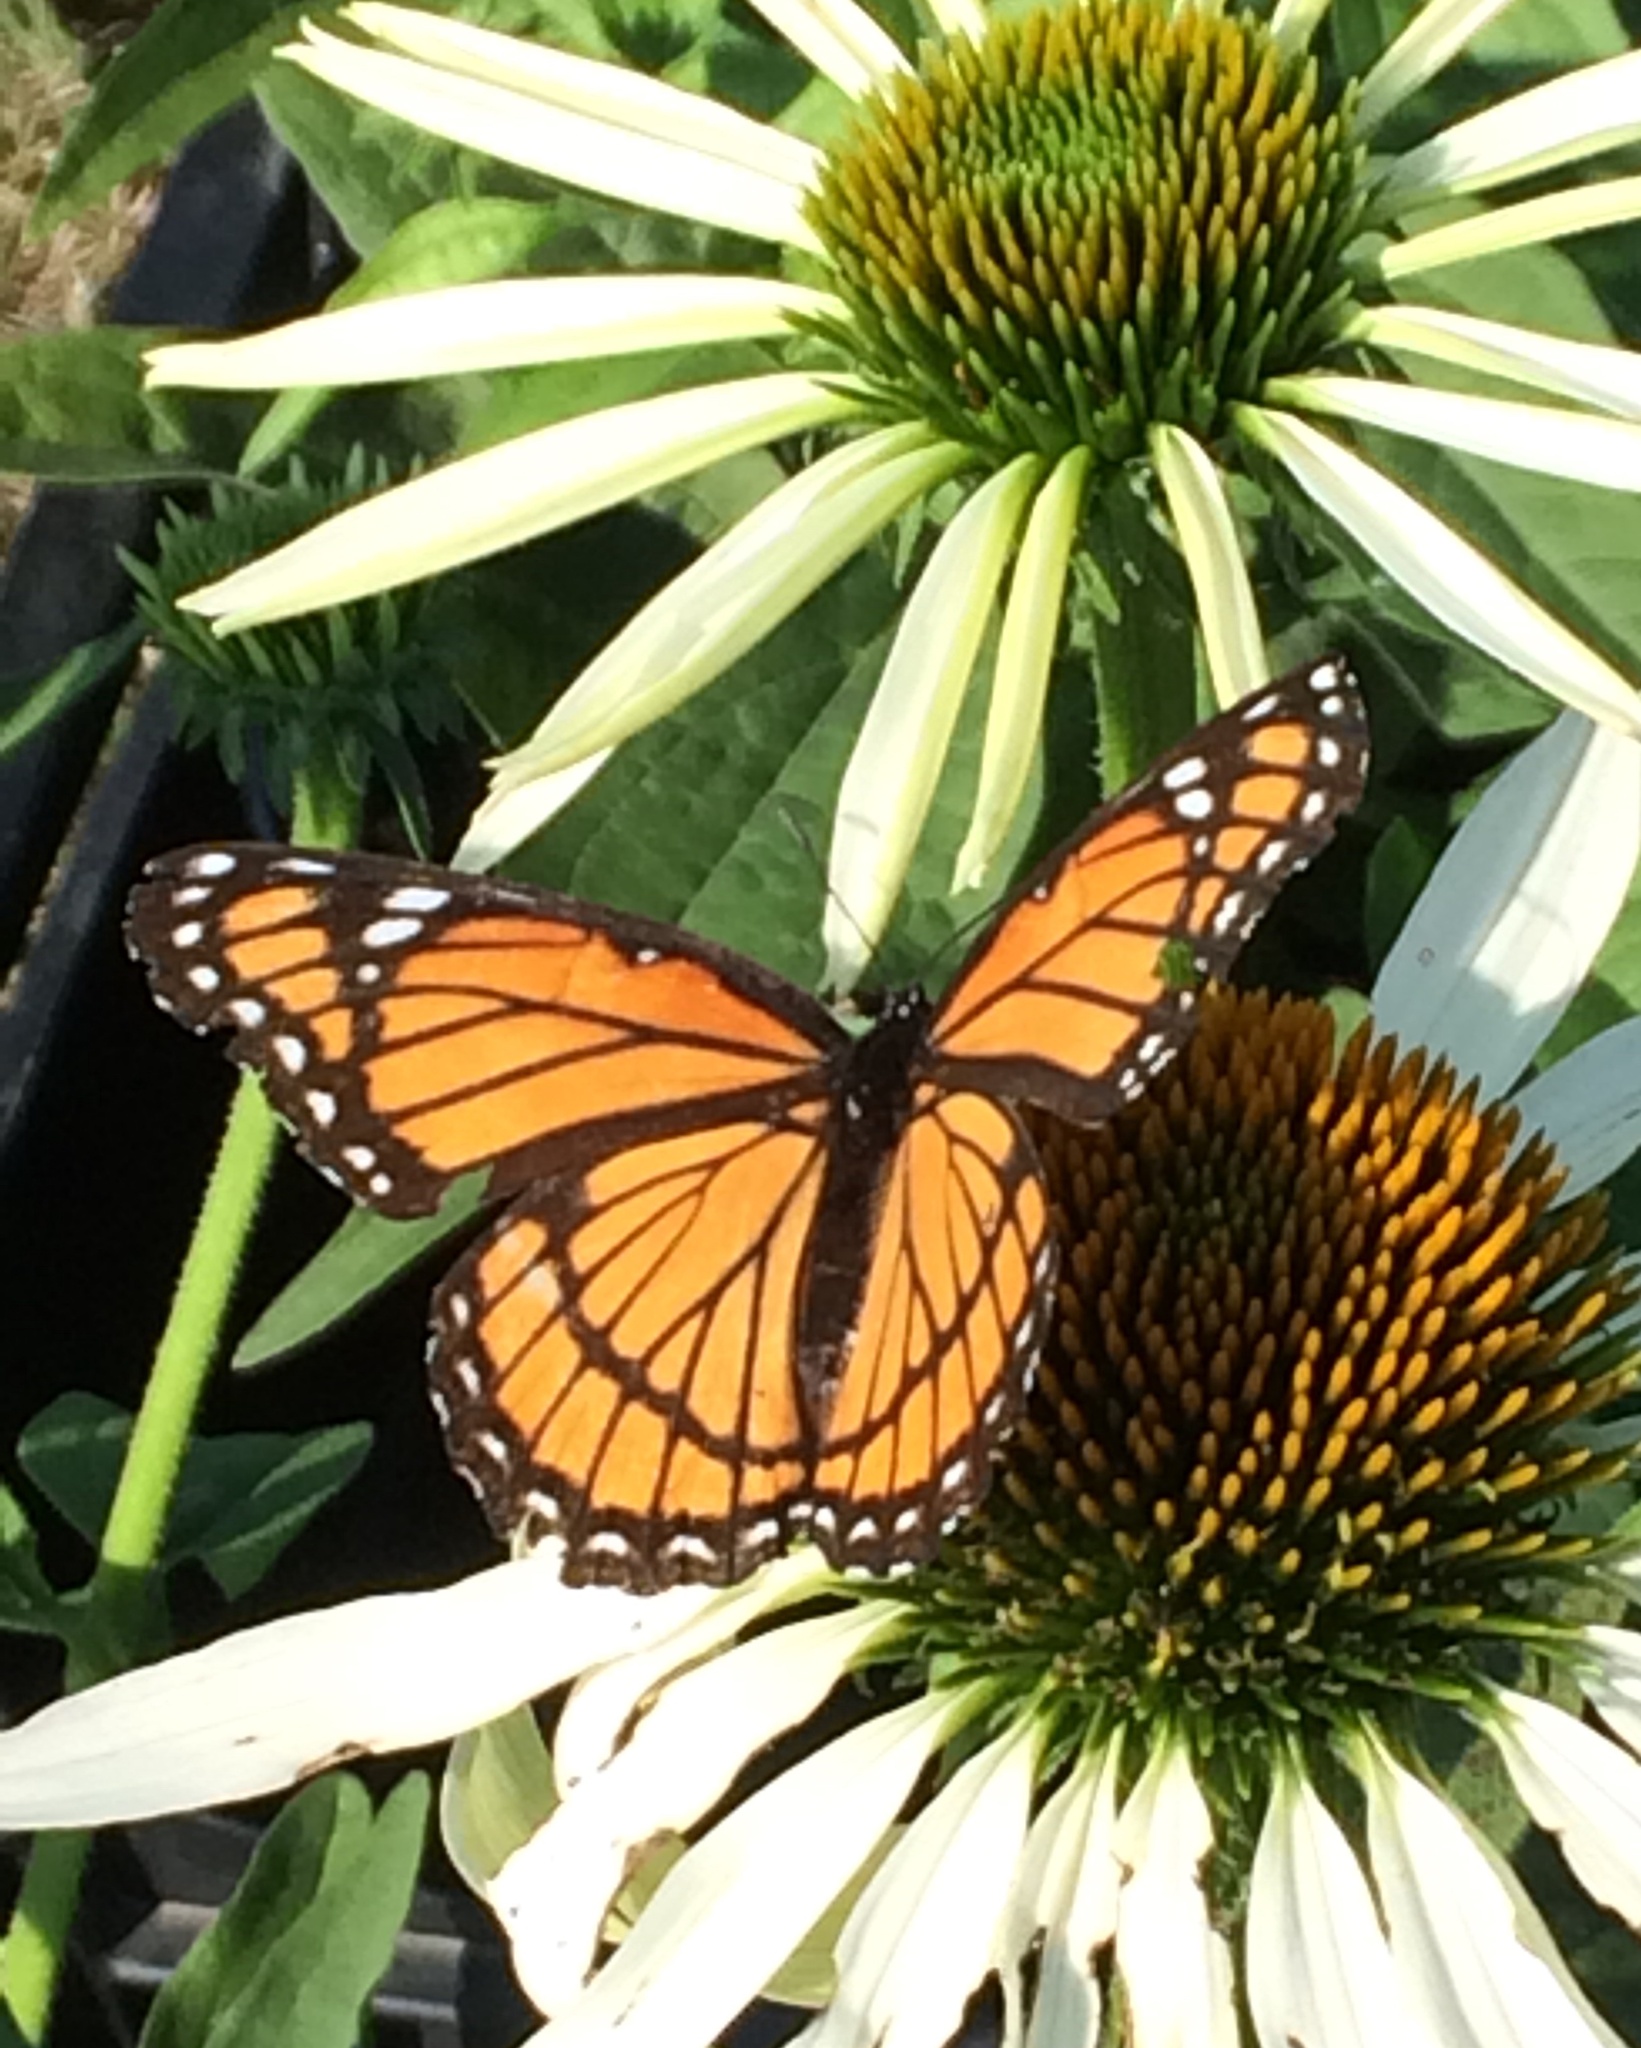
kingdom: Animalia
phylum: Arthropoda
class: Insecta
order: Lepidoptera
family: Nymphalidae
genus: Limenitis
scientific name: Limenitis archippus
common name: Viceroy
